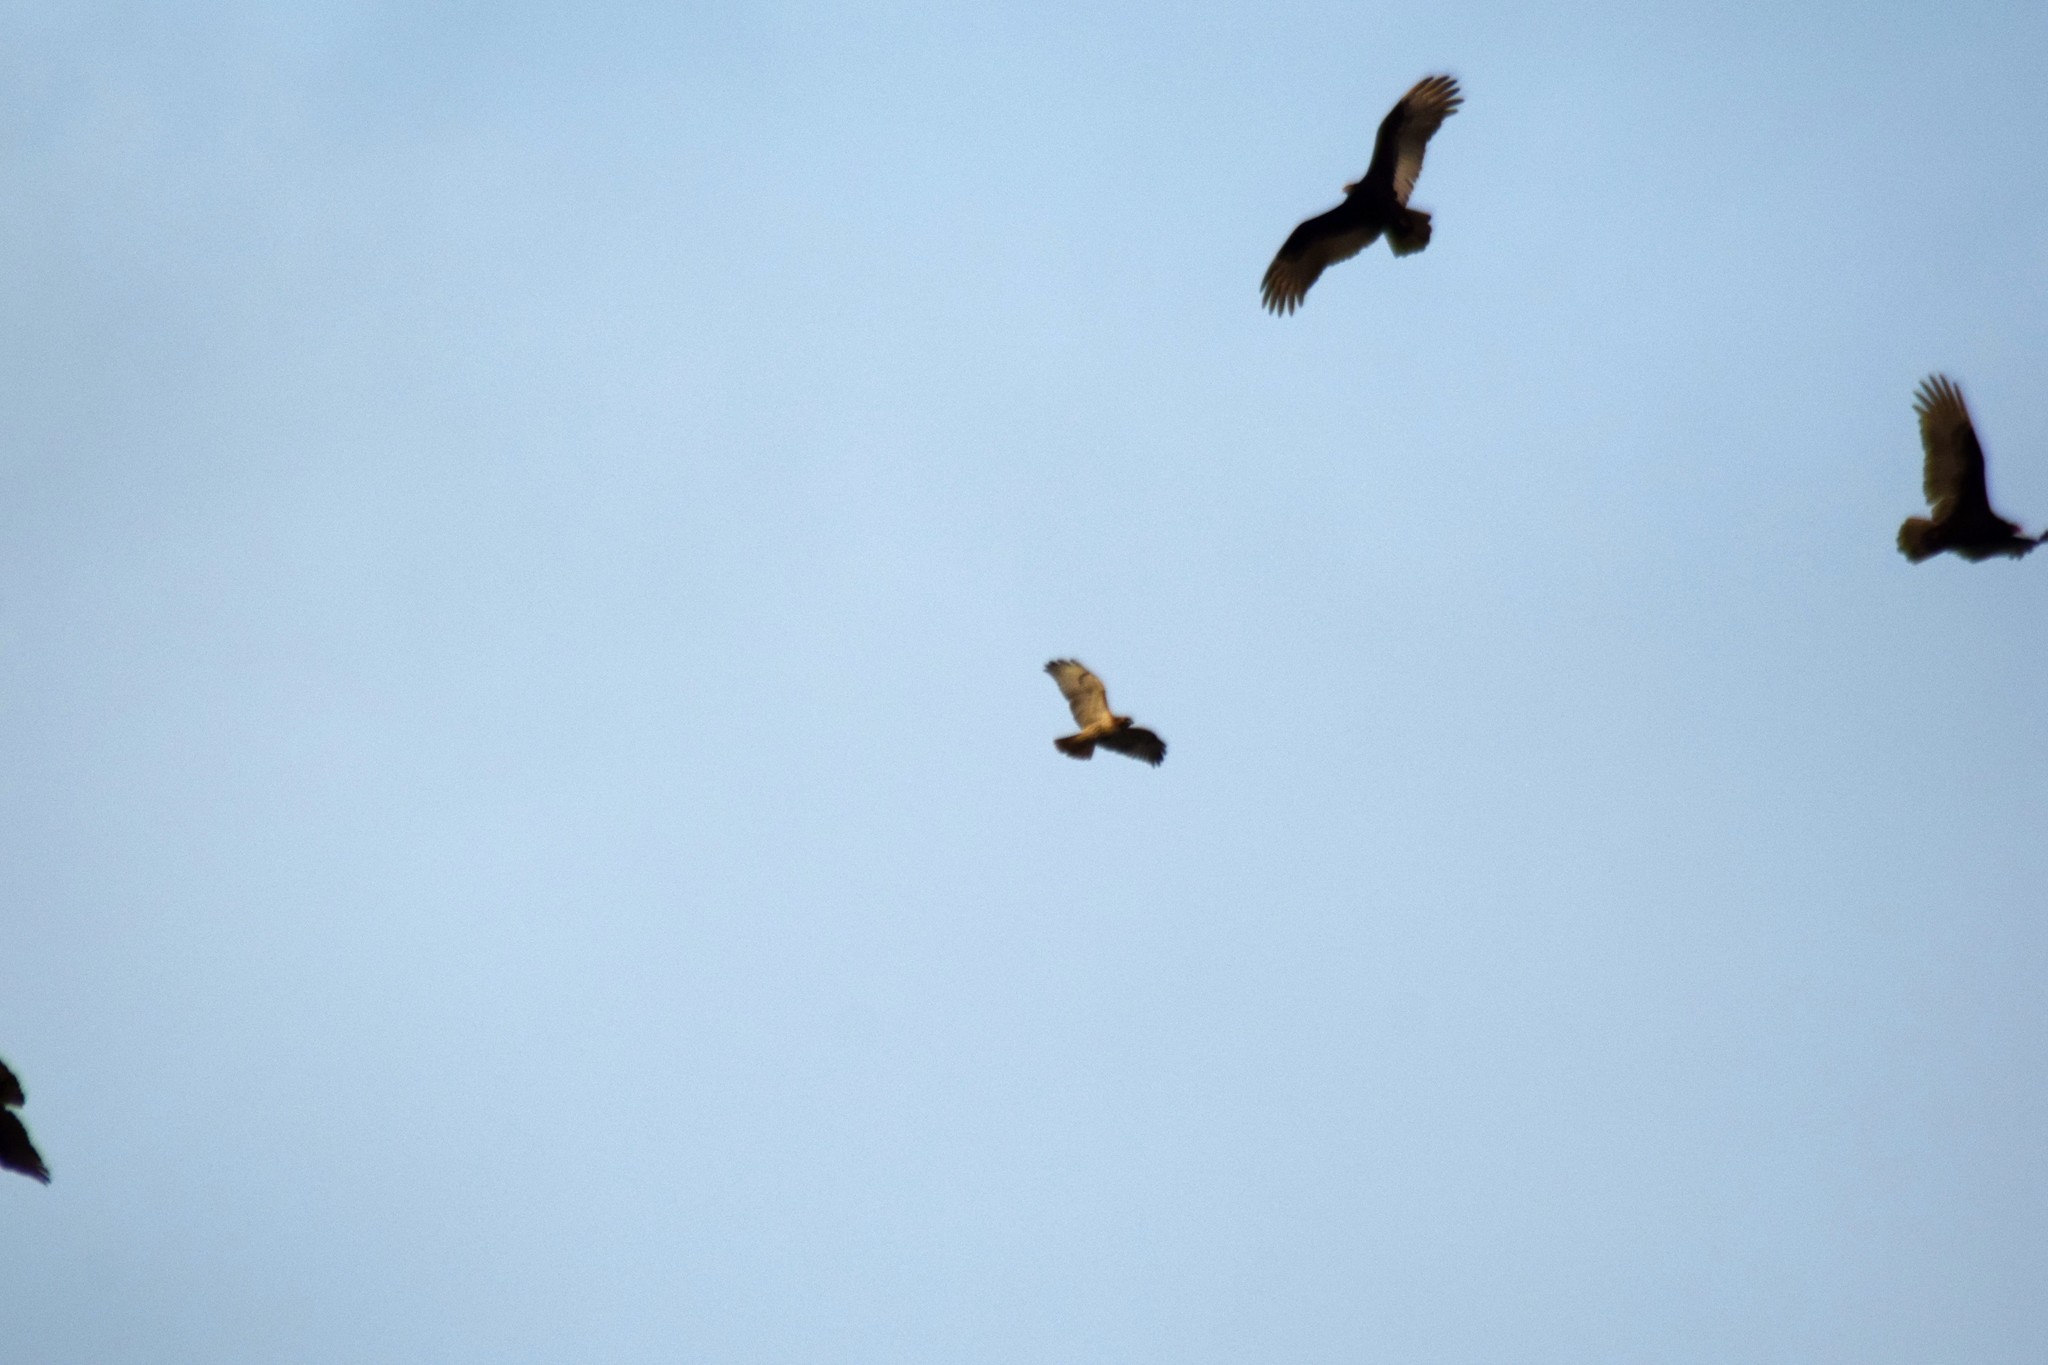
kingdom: Animalia
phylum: Chordata
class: Aves
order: Accipitriformes
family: Accipitridae
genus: Buteo
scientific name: Buteo jamaicensis
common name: Red-tailed hawk
